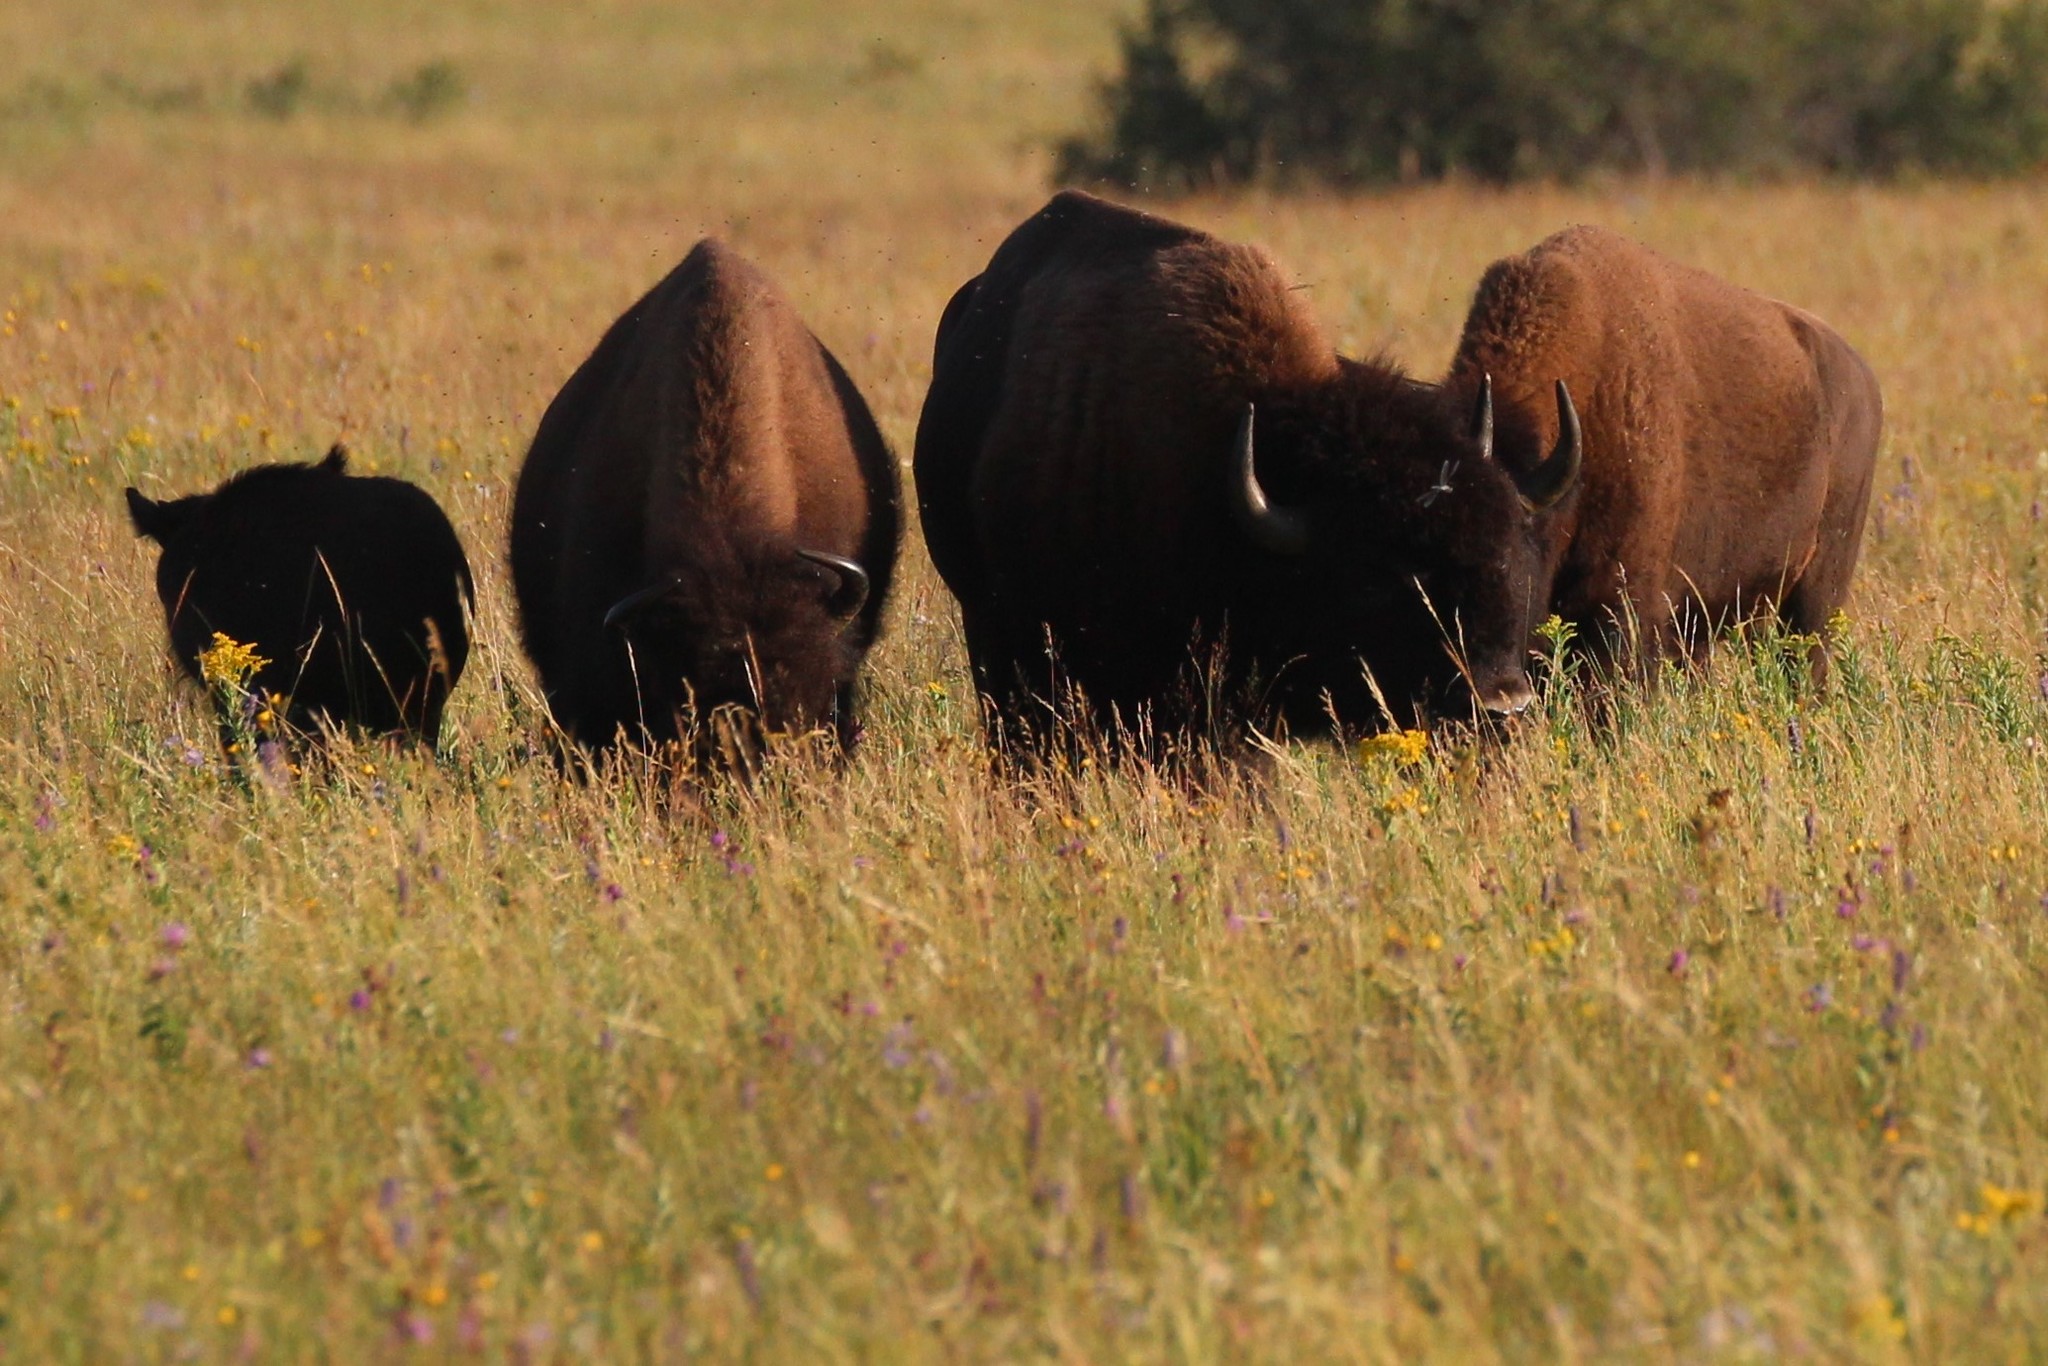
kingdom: Animalia
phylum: Chordata
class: Mammalia
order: Artiodactyla
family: Bovidae
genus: Bison
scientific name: Bison bison
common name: American bison
